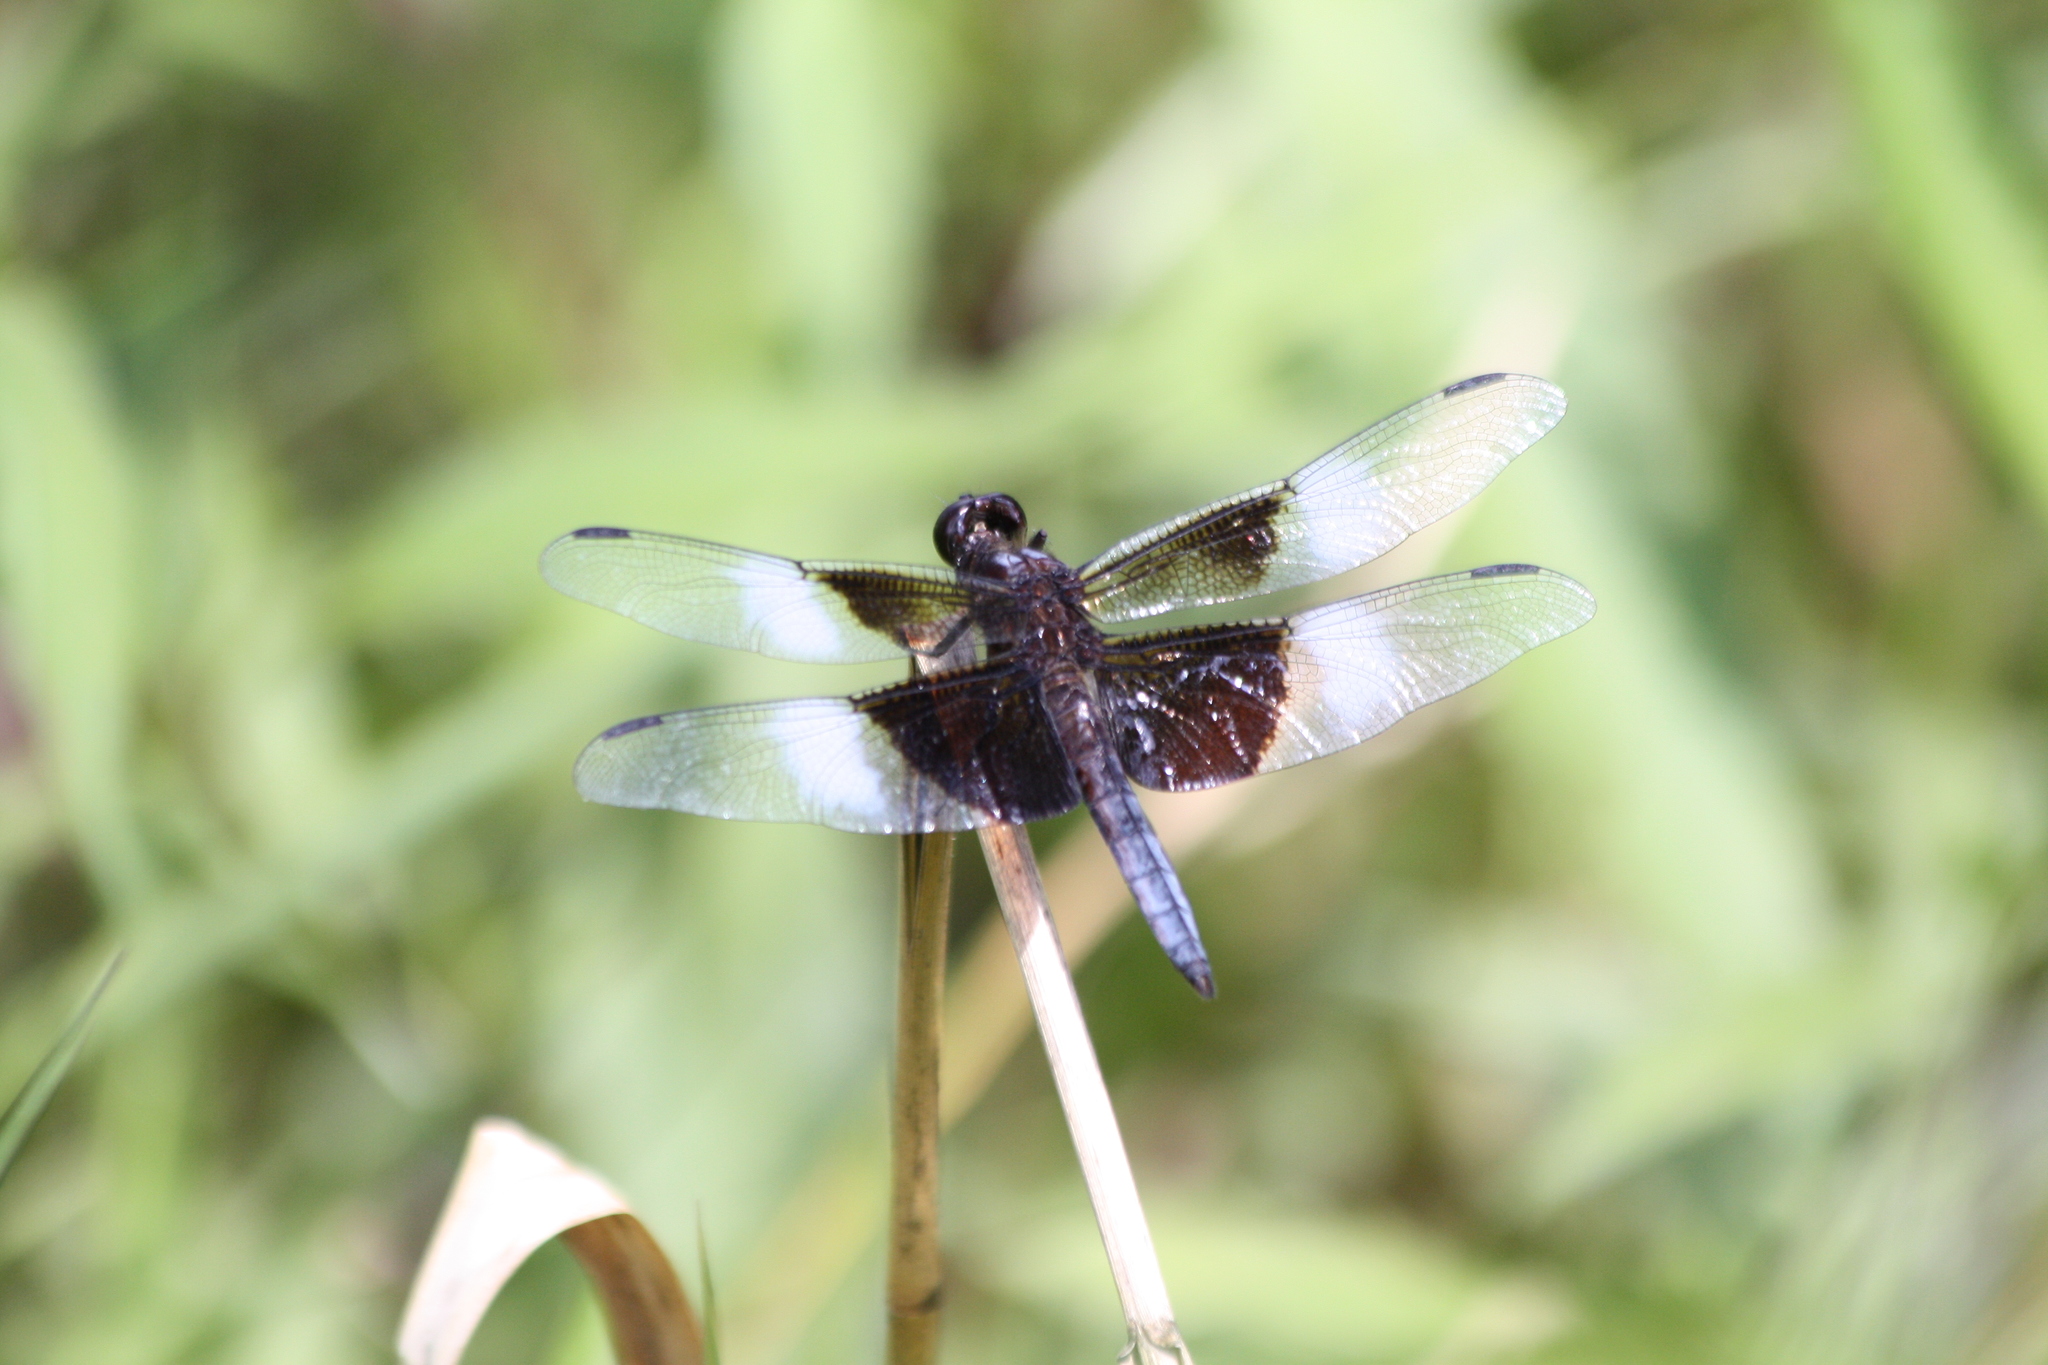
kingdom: Animalia
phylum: Arthropoda
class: Insecta
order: Odonata
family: Libellulidae
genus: Libellula
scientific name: Libellula luctuosa
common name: Widow skimmer
